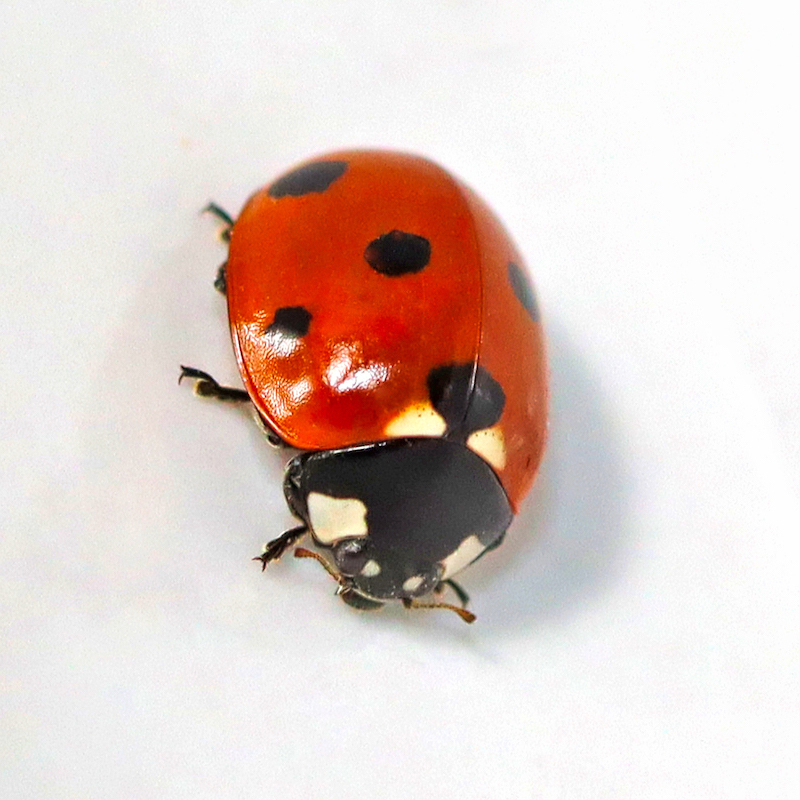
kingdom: Animalia
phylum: Arthropoda
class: Insecta
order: Coleoptera
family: Coccinellidae
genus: Coccinella
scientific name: Coccinella septempunctata
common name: Sevenspotted lady beetle
